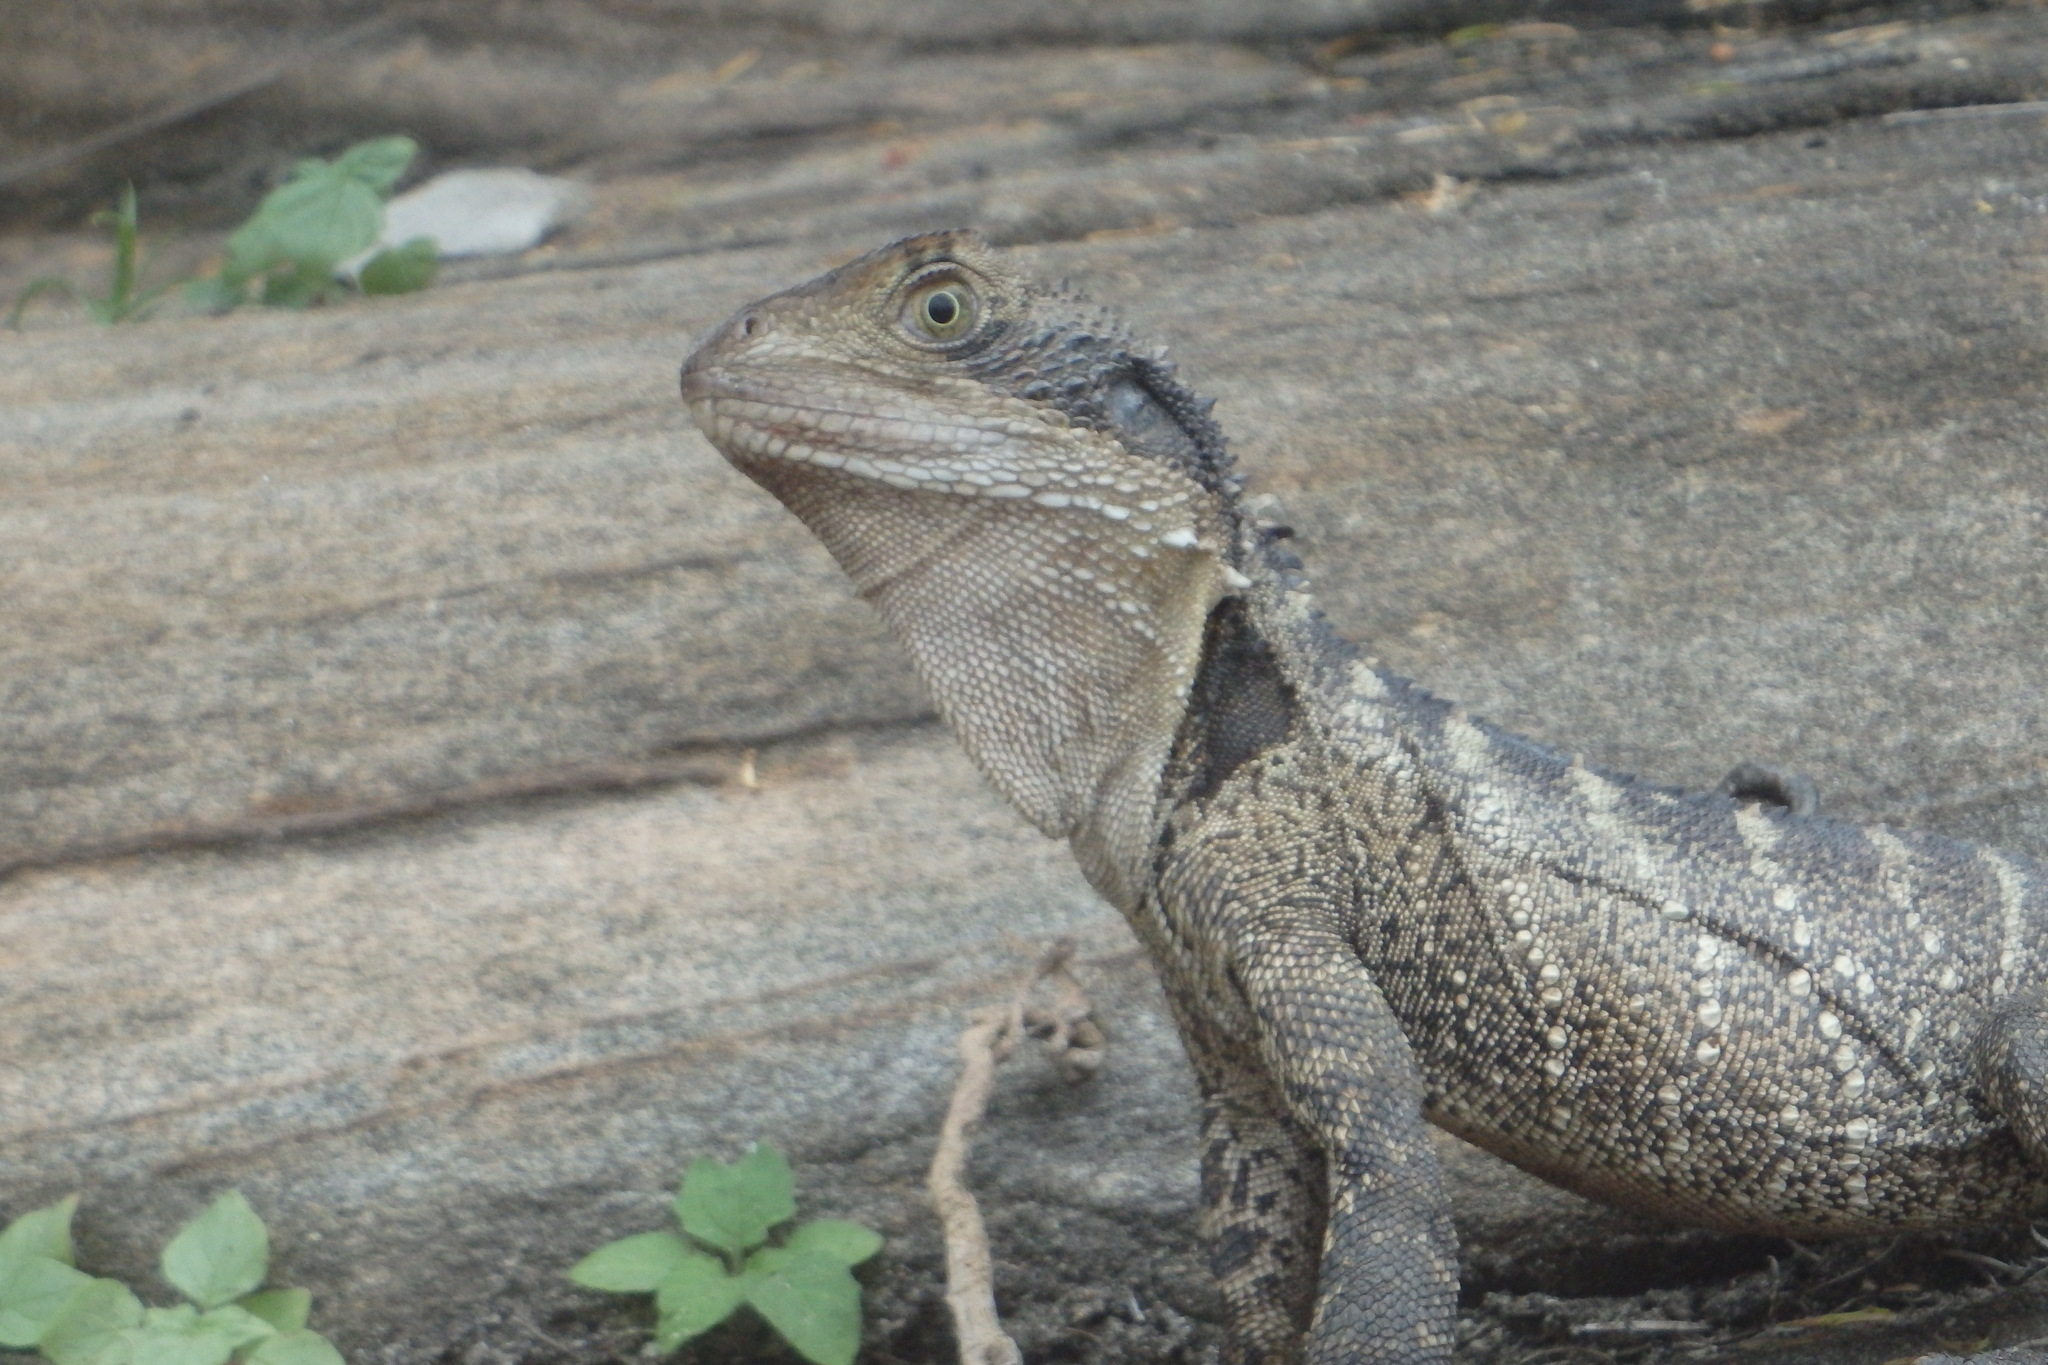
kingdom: Animalia
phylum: Chordata
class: Squamata
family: Agamidae
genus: Intellagama
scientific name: Intellagama lesueurii
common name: Eastern water dragon
